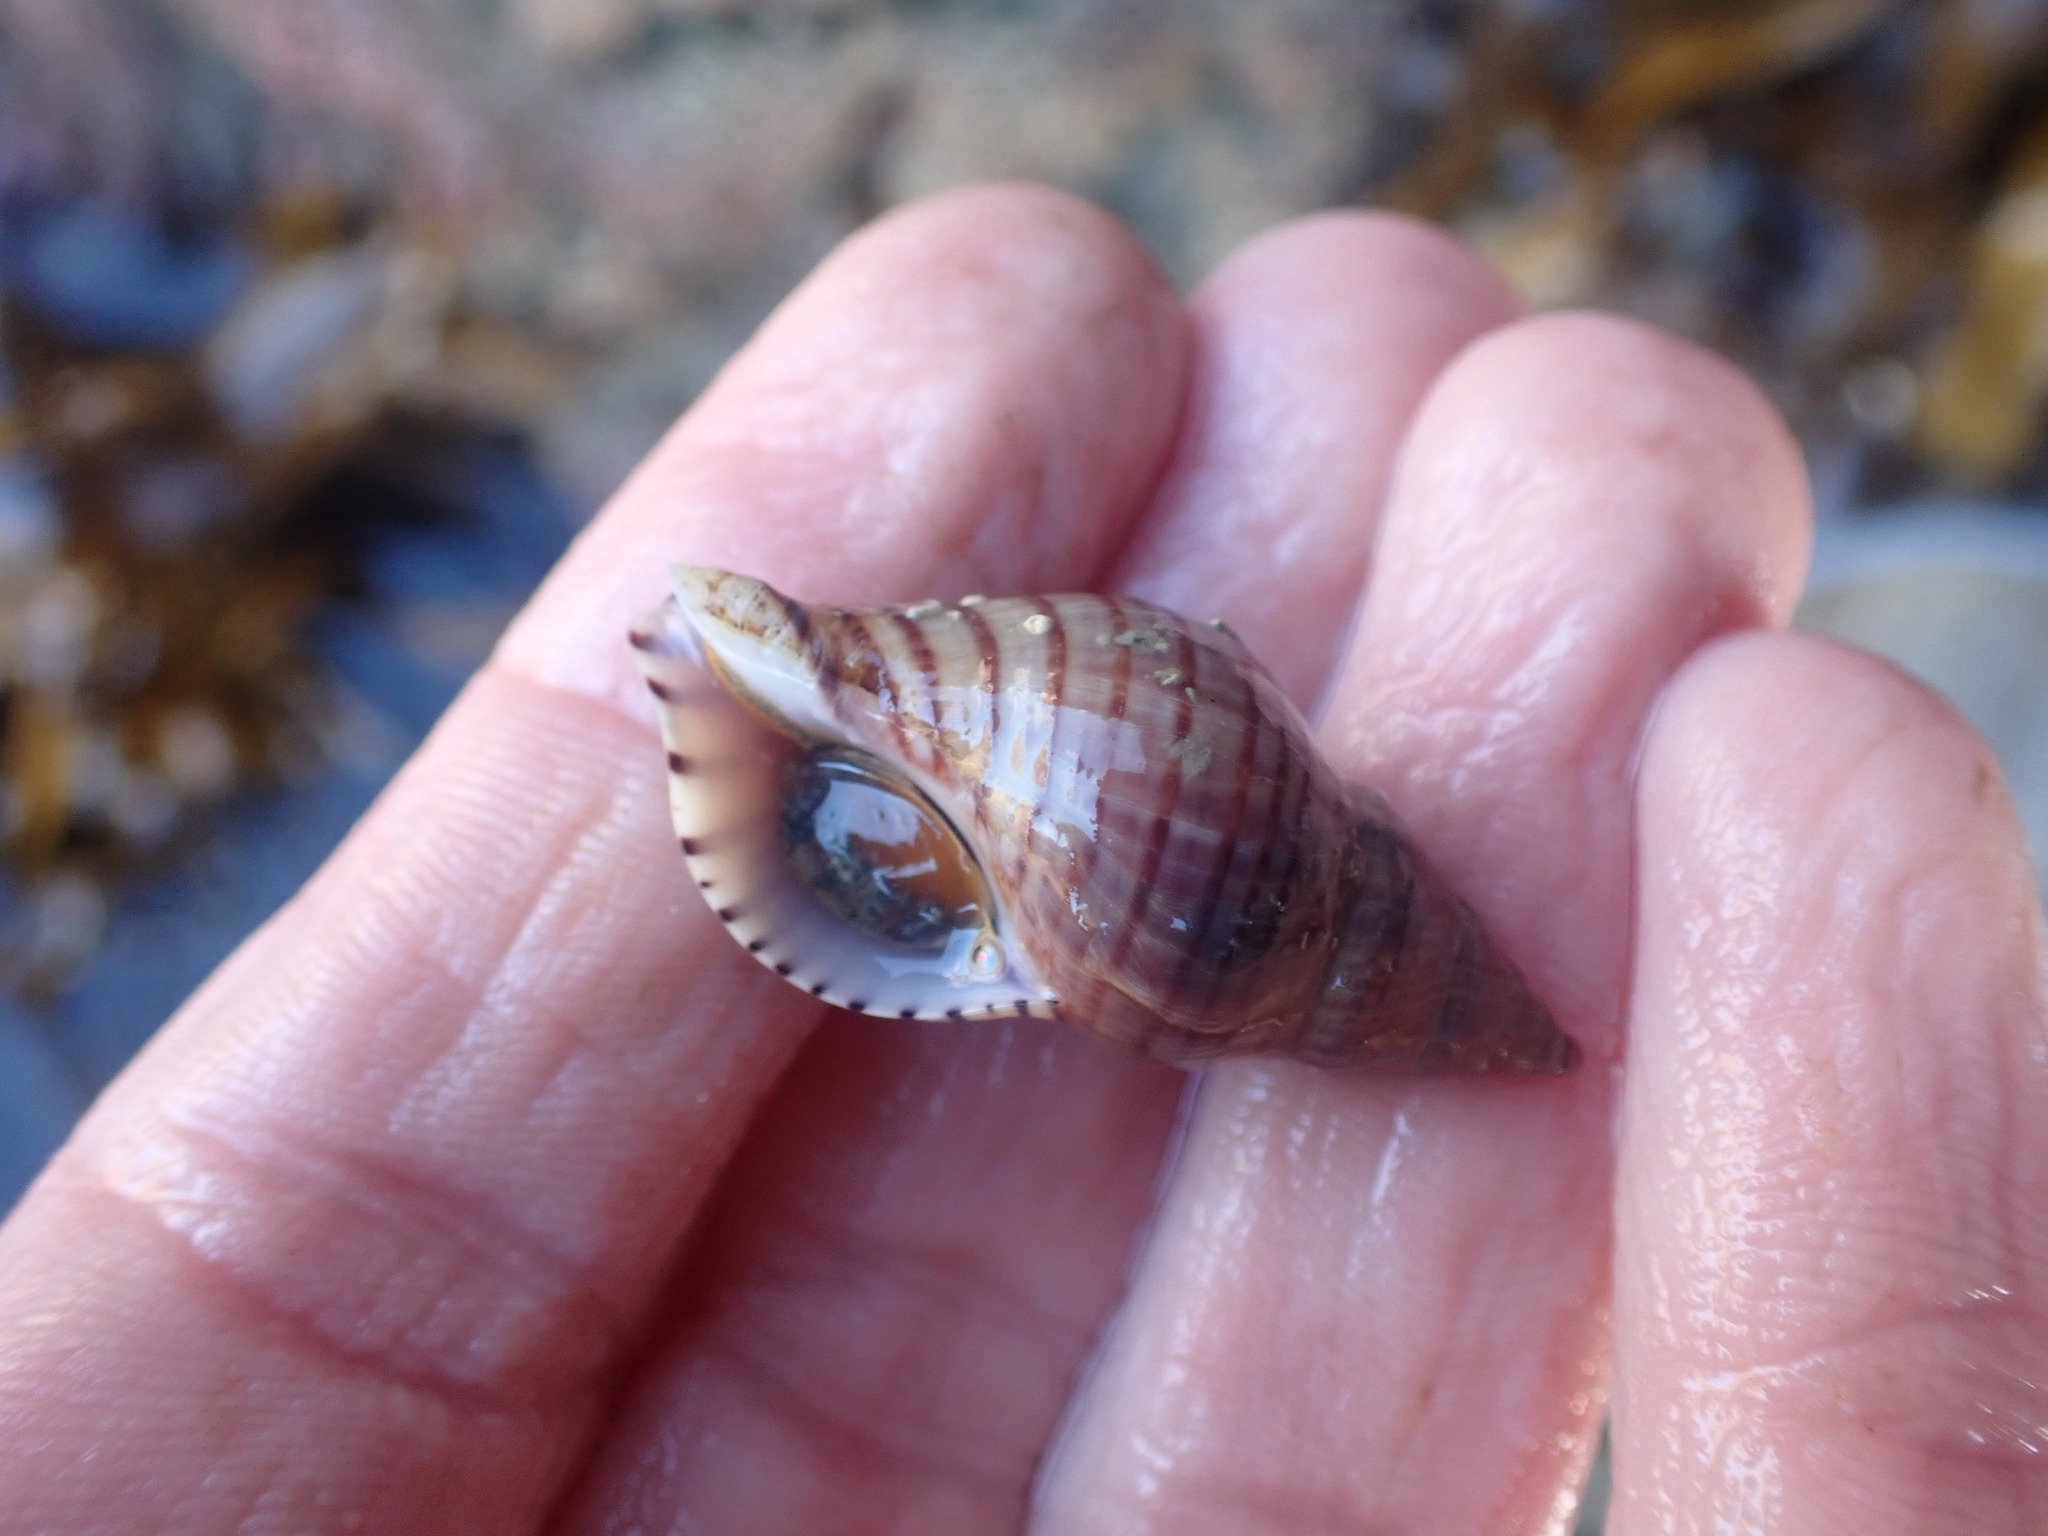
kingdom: Animalia
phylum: Mollusca
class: Gastropoda
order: Neogastropoda
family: Tudiclidae
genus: Buccinulum
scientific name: Buccinulum pallidum
